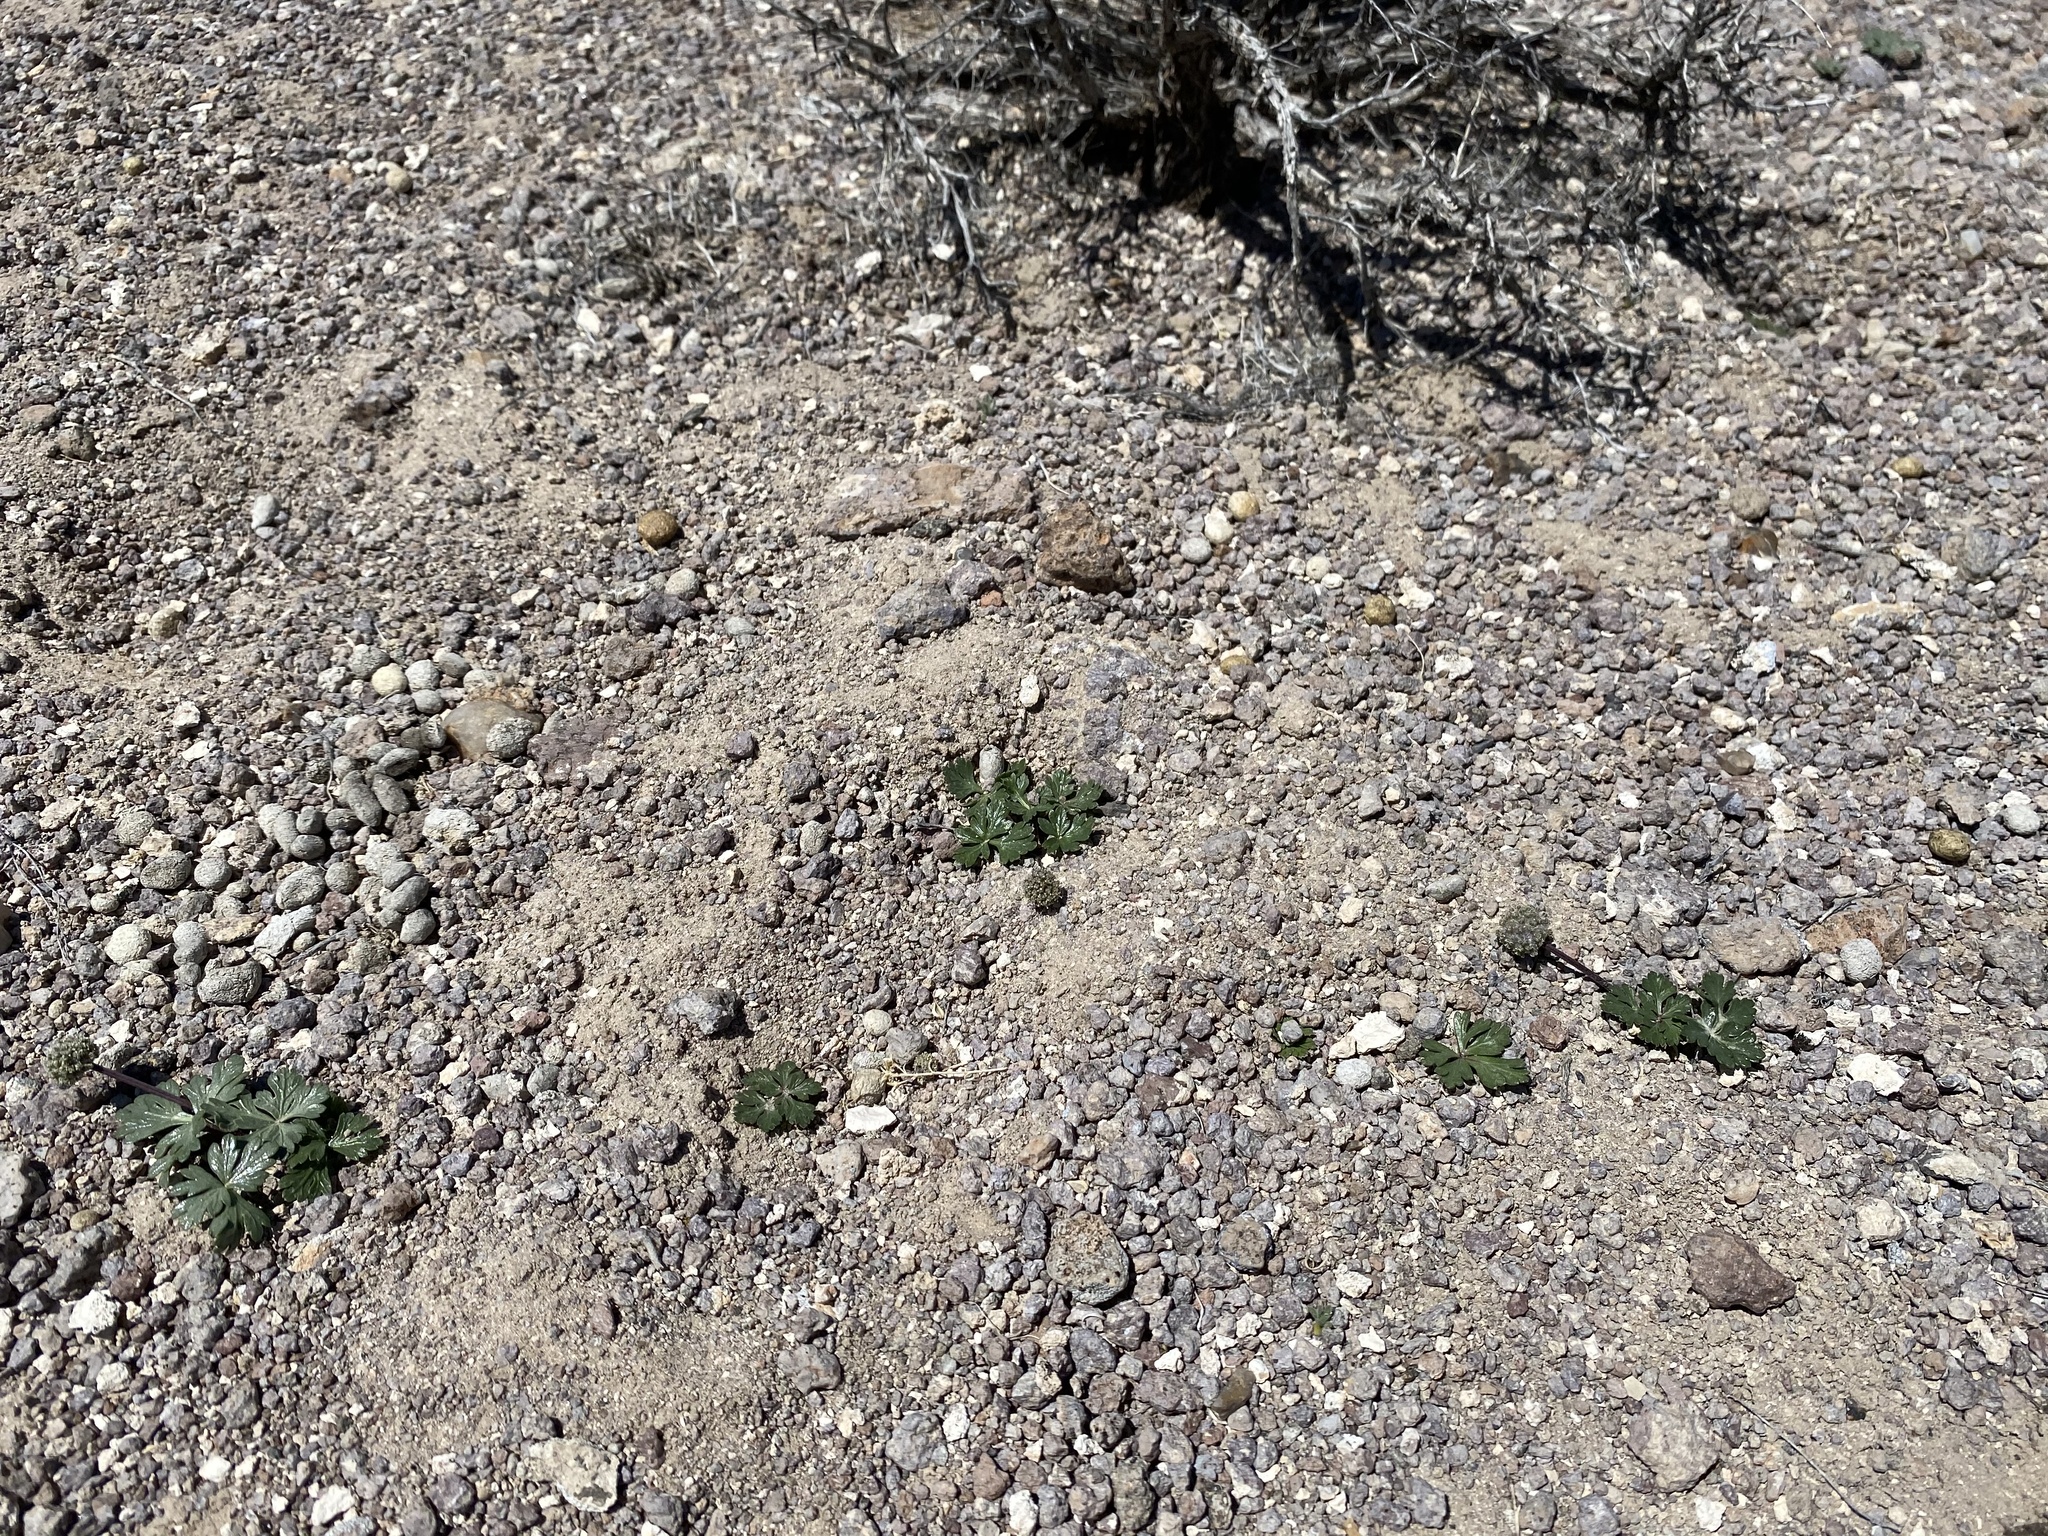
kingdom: Plantae
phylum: Tracheophyta
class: Magnoliopsida
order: Apiales
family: Apiaceae
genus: Cymopterus
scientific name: Cymopterus ripleyi
